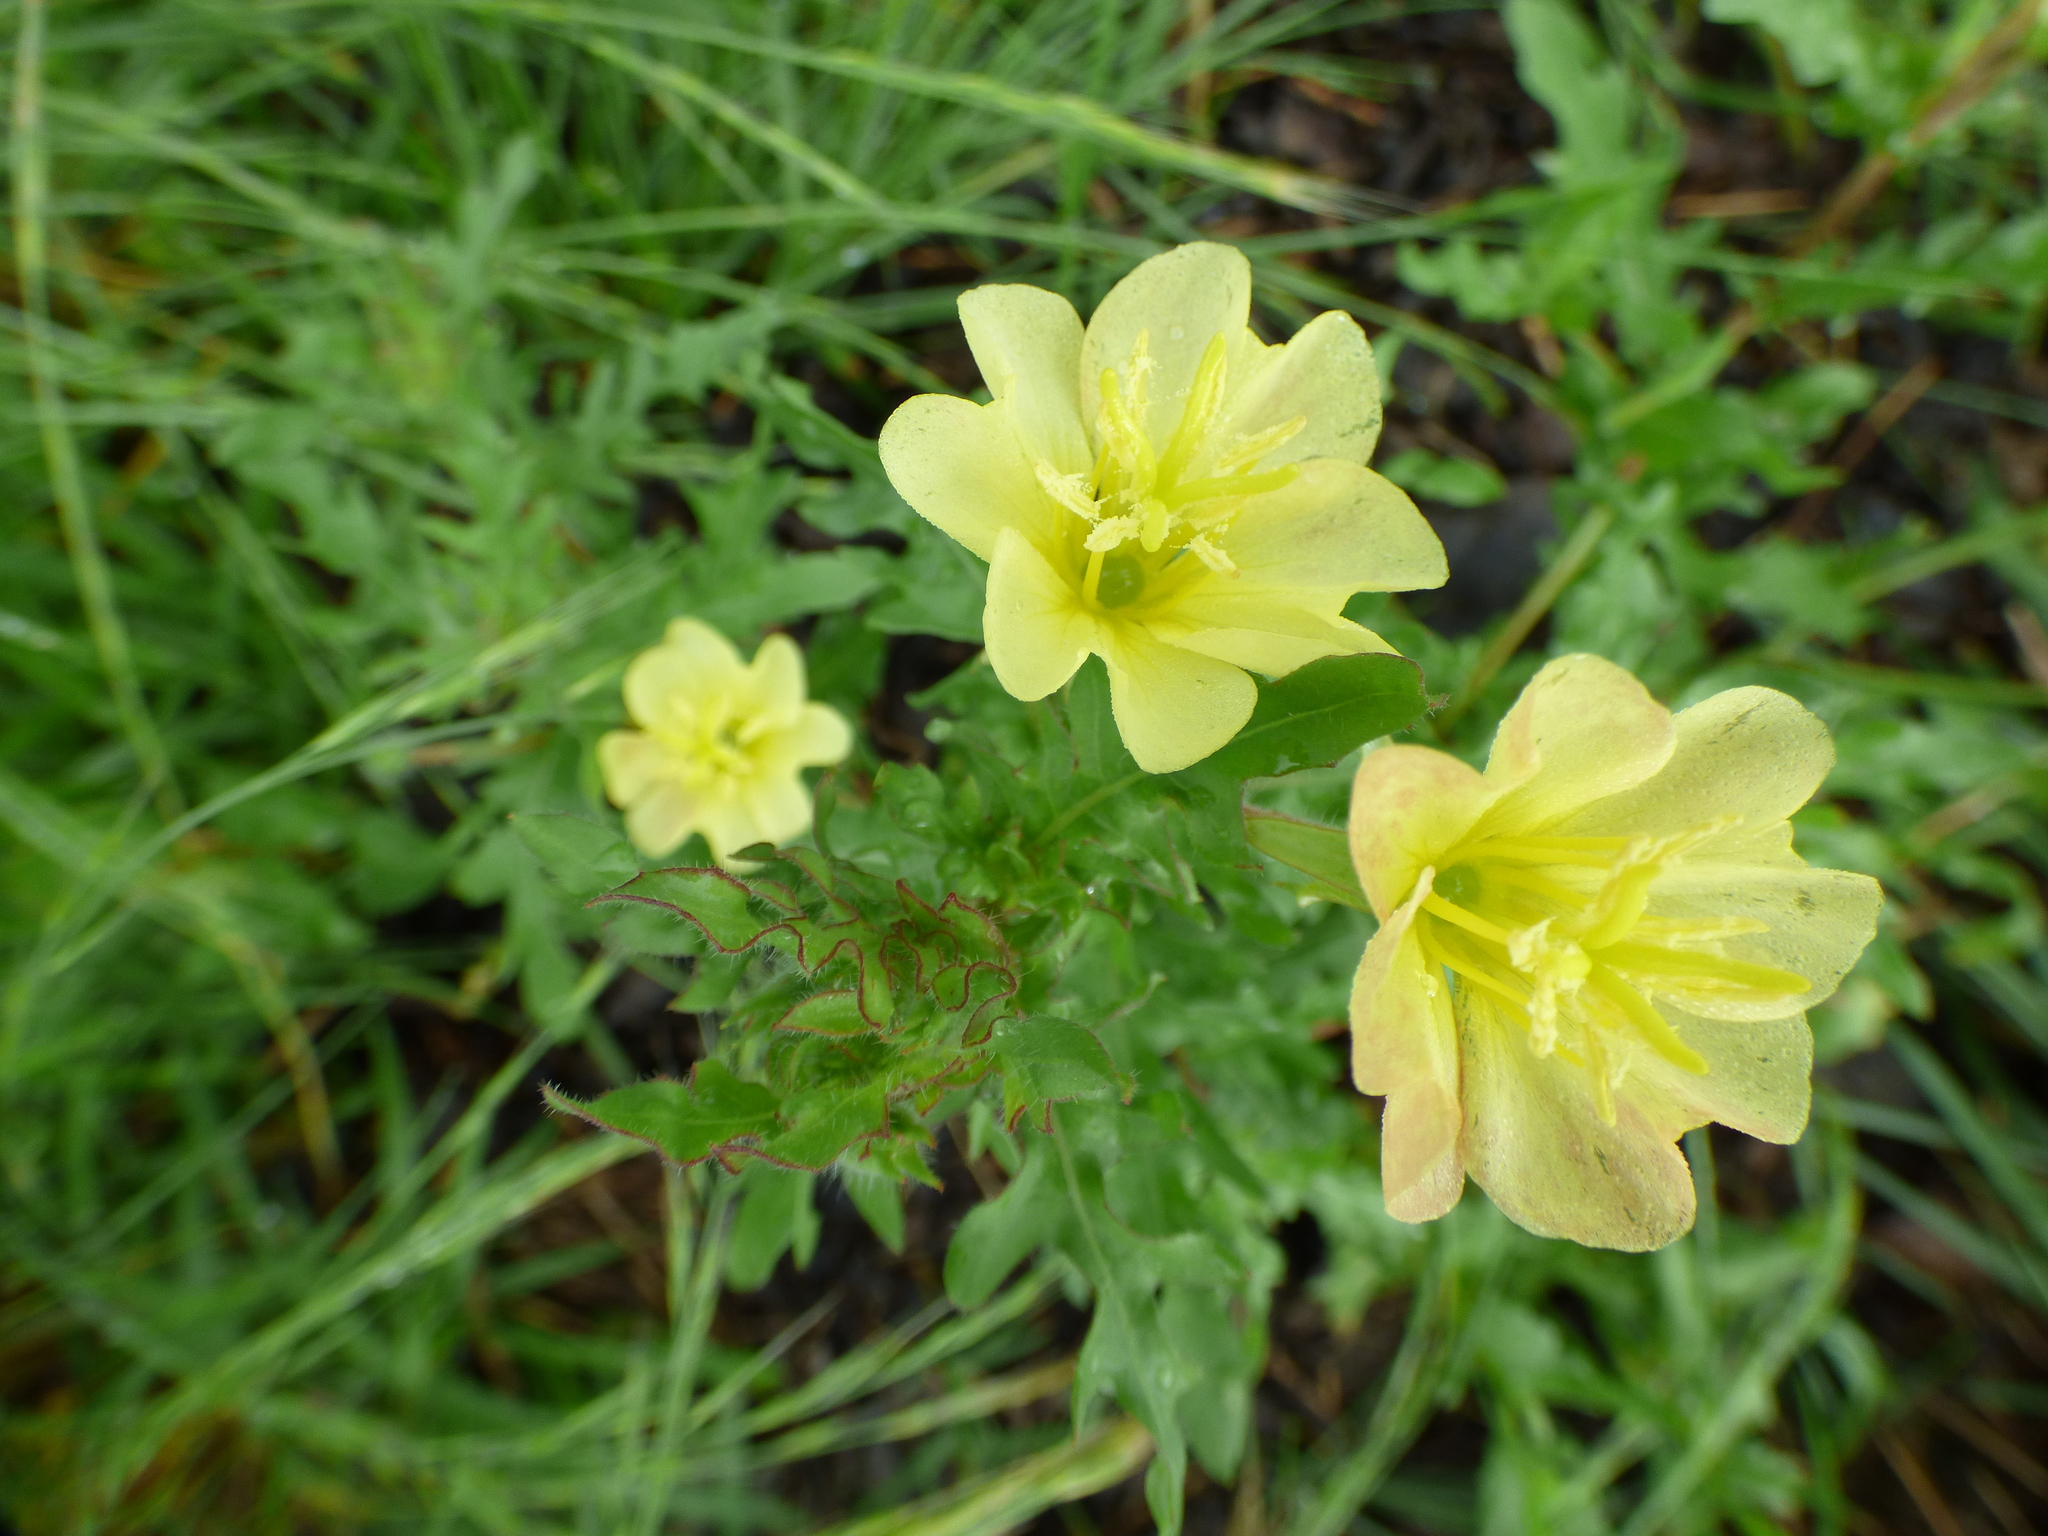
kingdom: Plantae
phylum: Tracheophyta
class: Magnoliopsida
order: Myrtales
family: Onagraceae
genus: Oenothera
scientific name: Oenothera laciniata
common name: Cut-leaved evening-primrose
